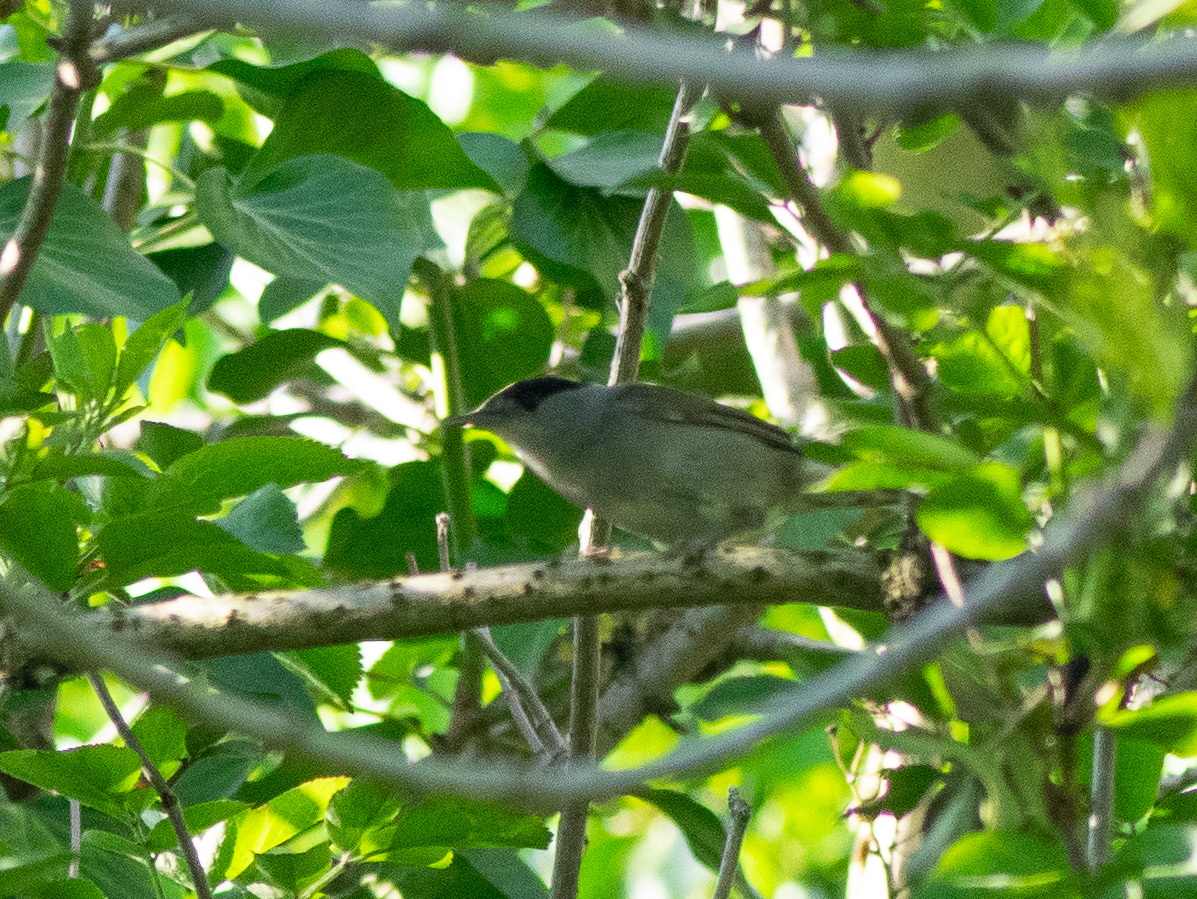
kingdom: Animalia
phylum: Chordata
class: Aves
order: Passeriformes
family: Sylviidae
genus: Sylvia
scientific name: Sylvia atricapilla
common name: Eurasian blackcap
